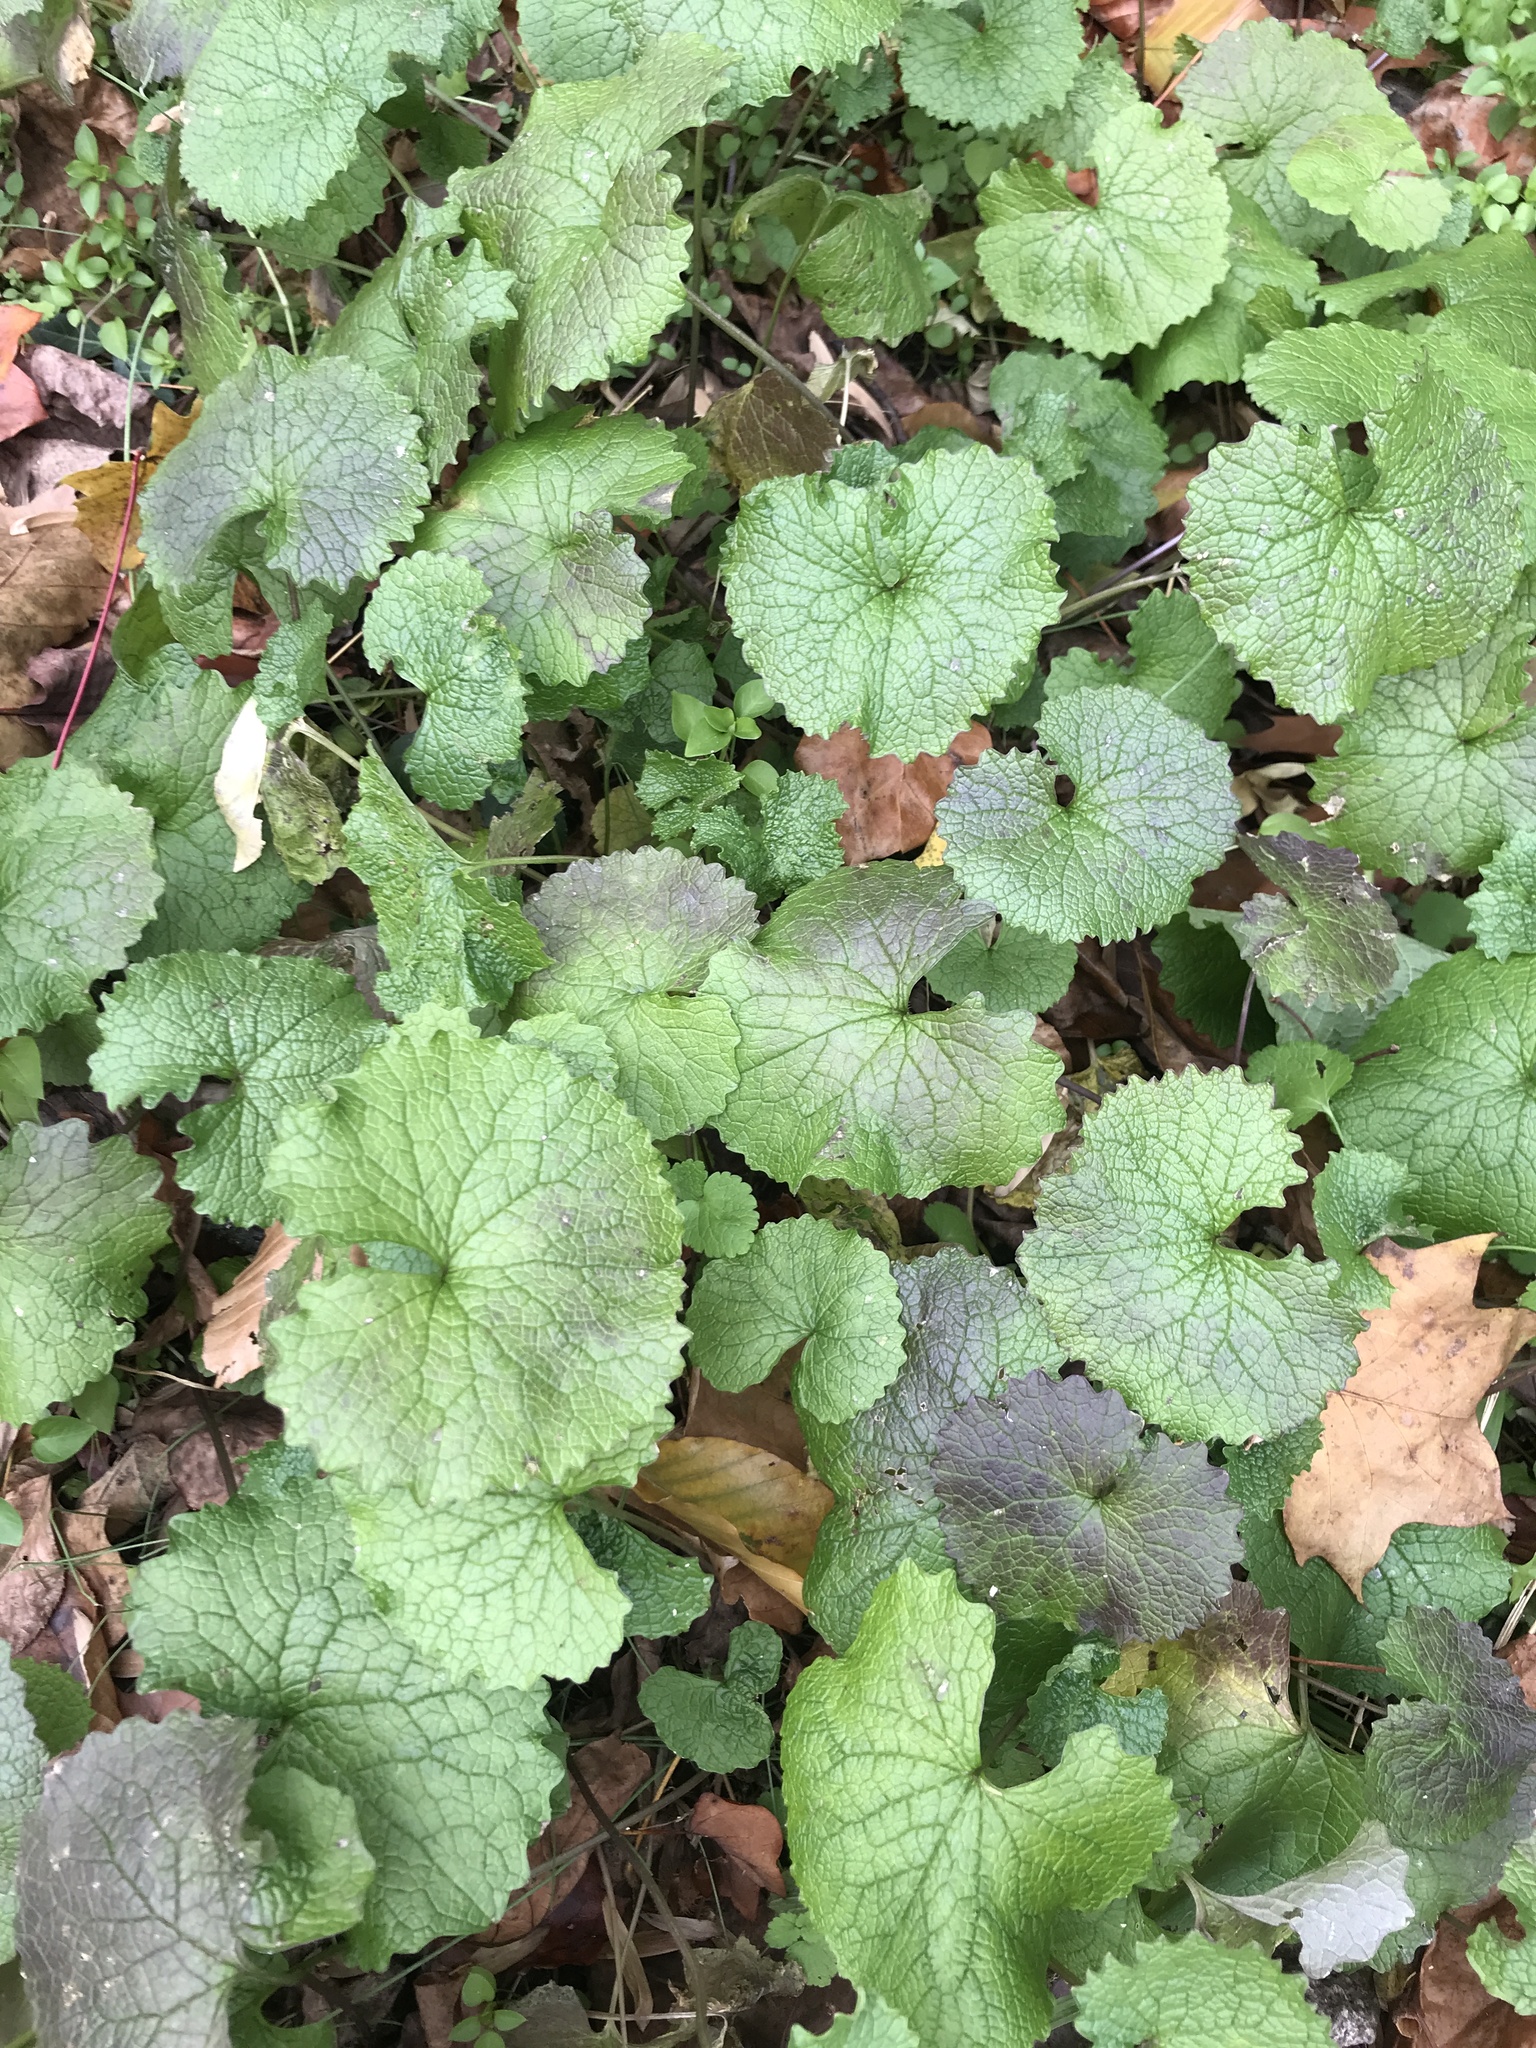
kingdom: Plantae
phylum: Tracheophyta
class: Magnoliopsida
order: Brassicales
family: Brassicaceae
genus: Alliaria
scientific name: Alliaria petiolata
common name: Garlic mustard
